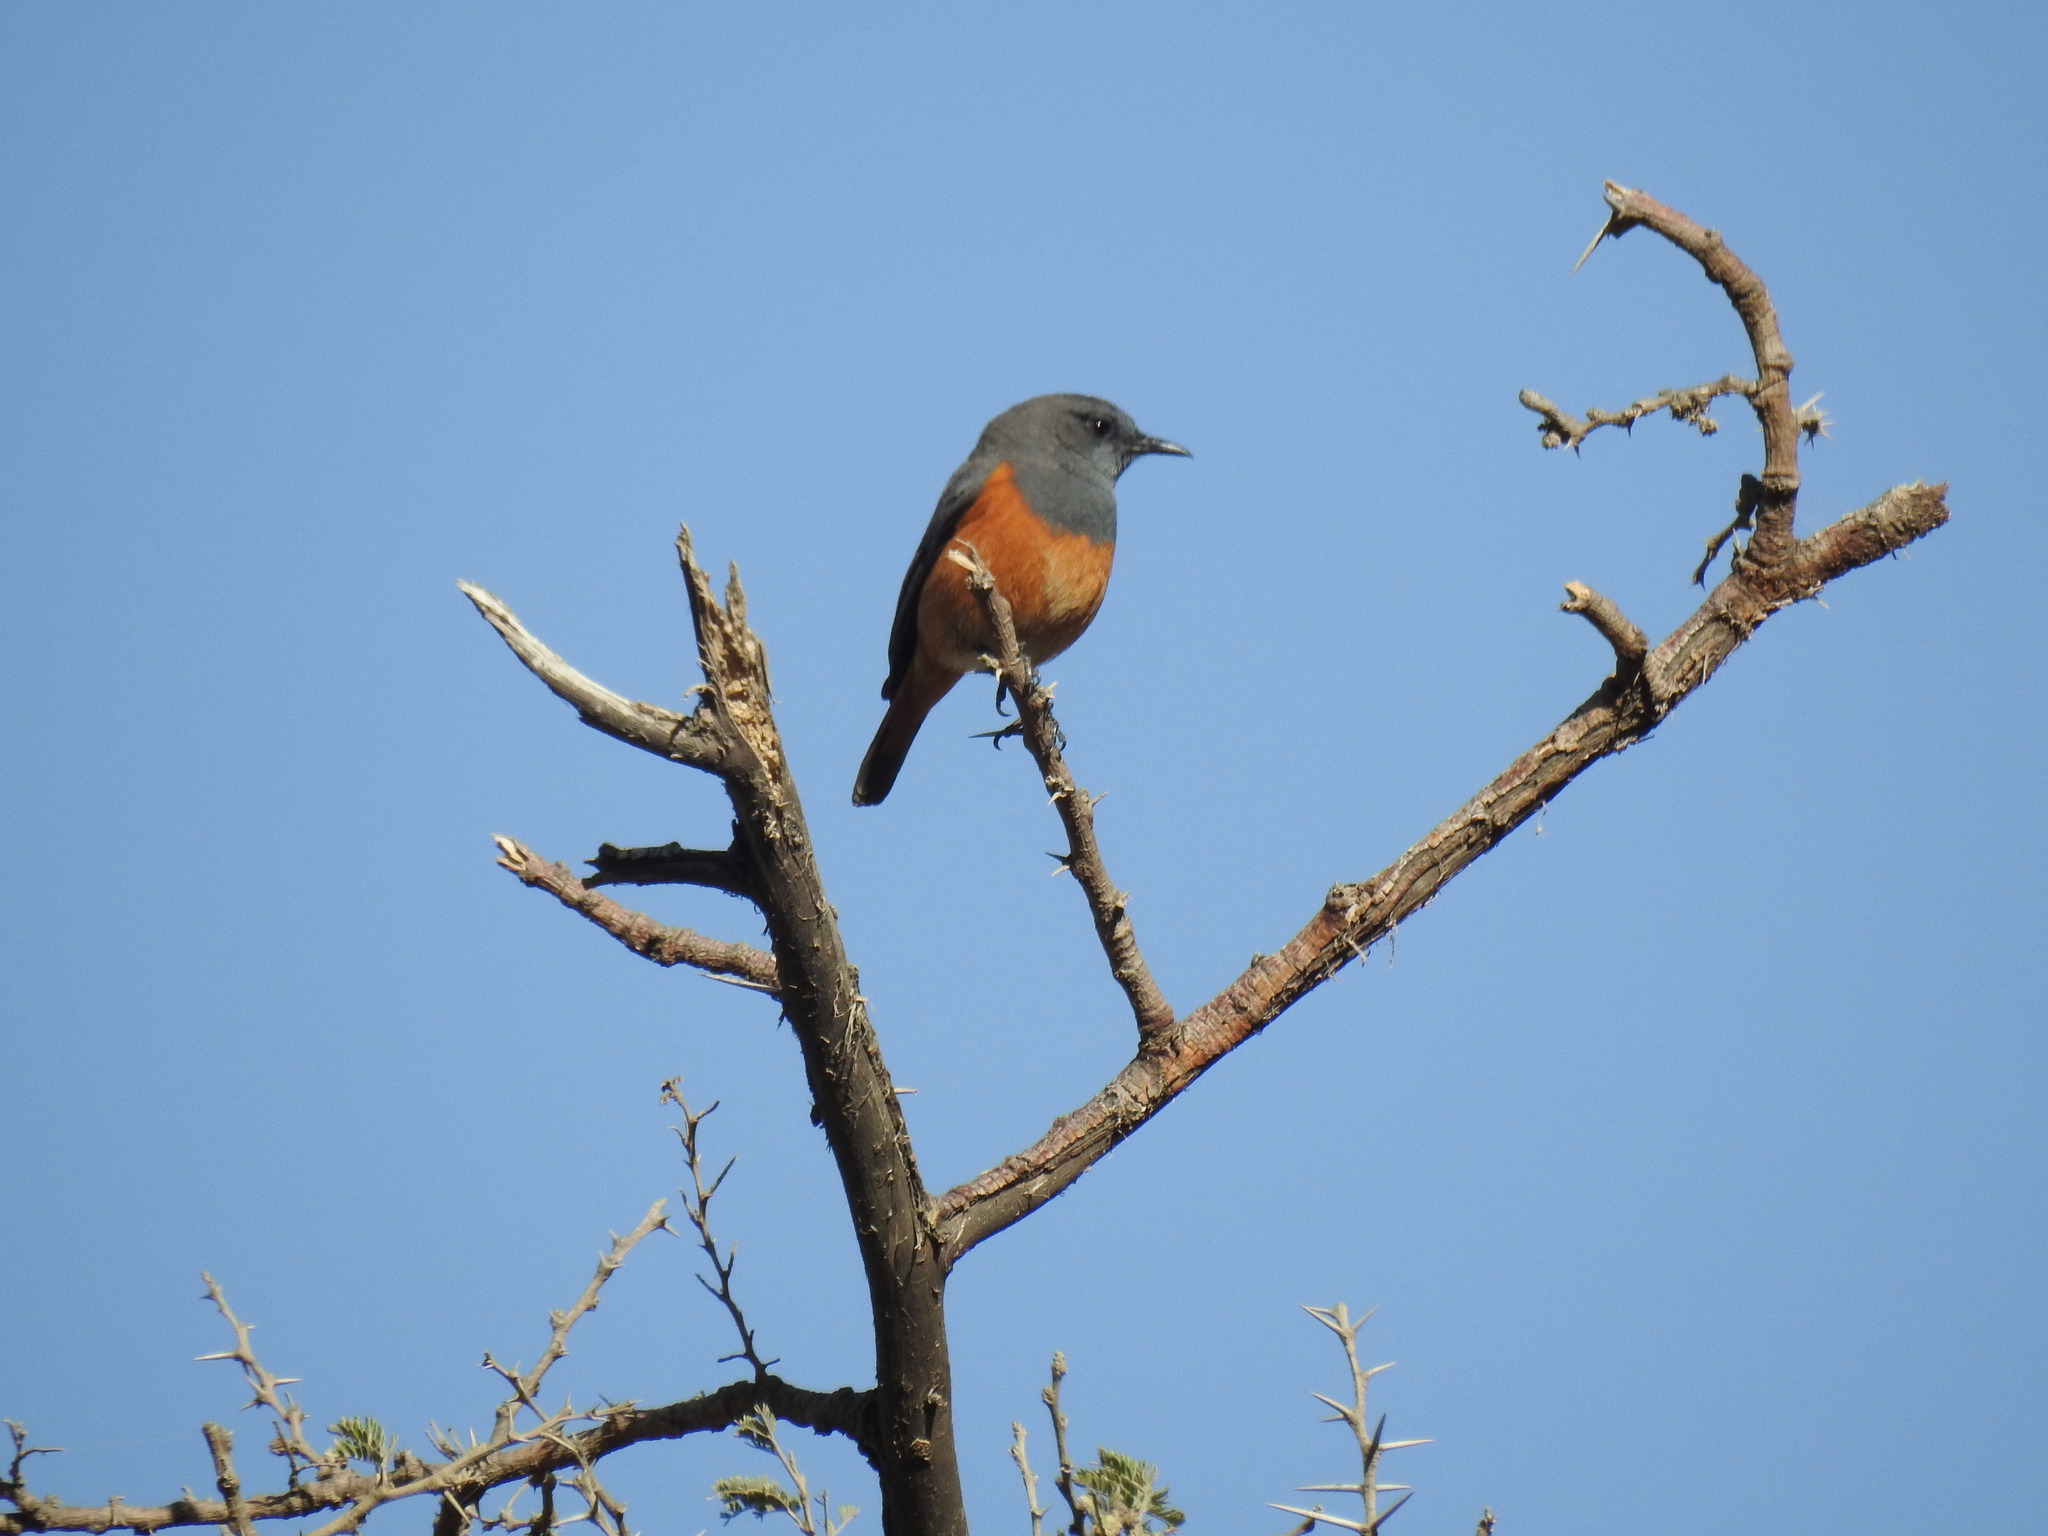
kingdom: Animalia
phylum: Chordata
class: Aves
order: Passeriformes
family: Muscicapidae
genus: Monticola
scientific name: Monticola rufocinereus
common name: Little rock thrush
